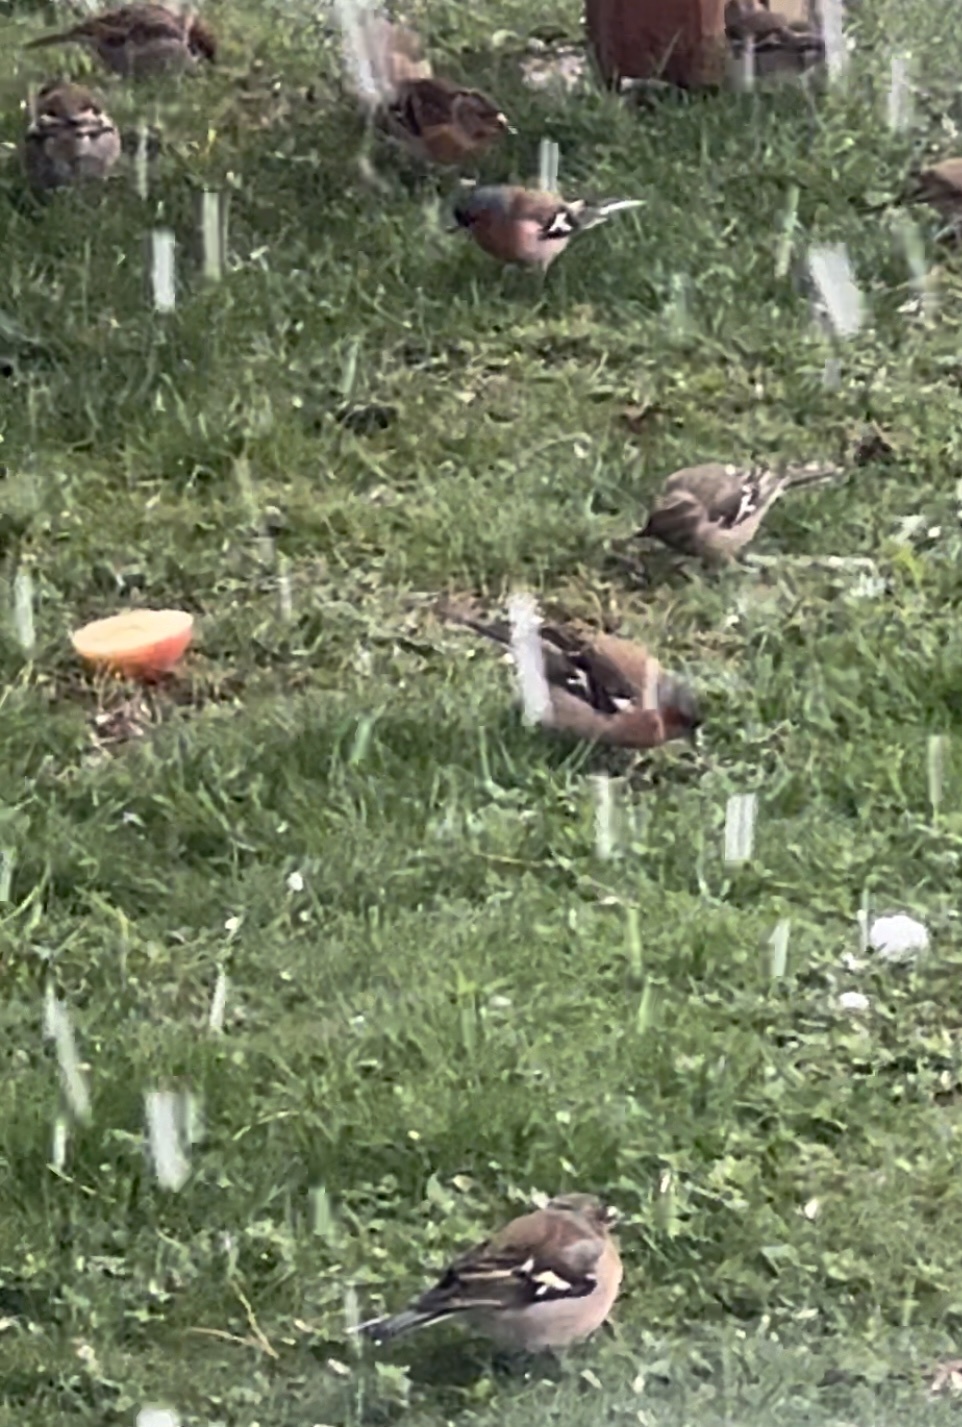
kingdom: Animalia
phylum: Chordata
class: Aves
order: Passeriformes
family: Fringillidae
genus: Fringilla
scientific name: Fringilla coelebs
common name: Common chaffinch
